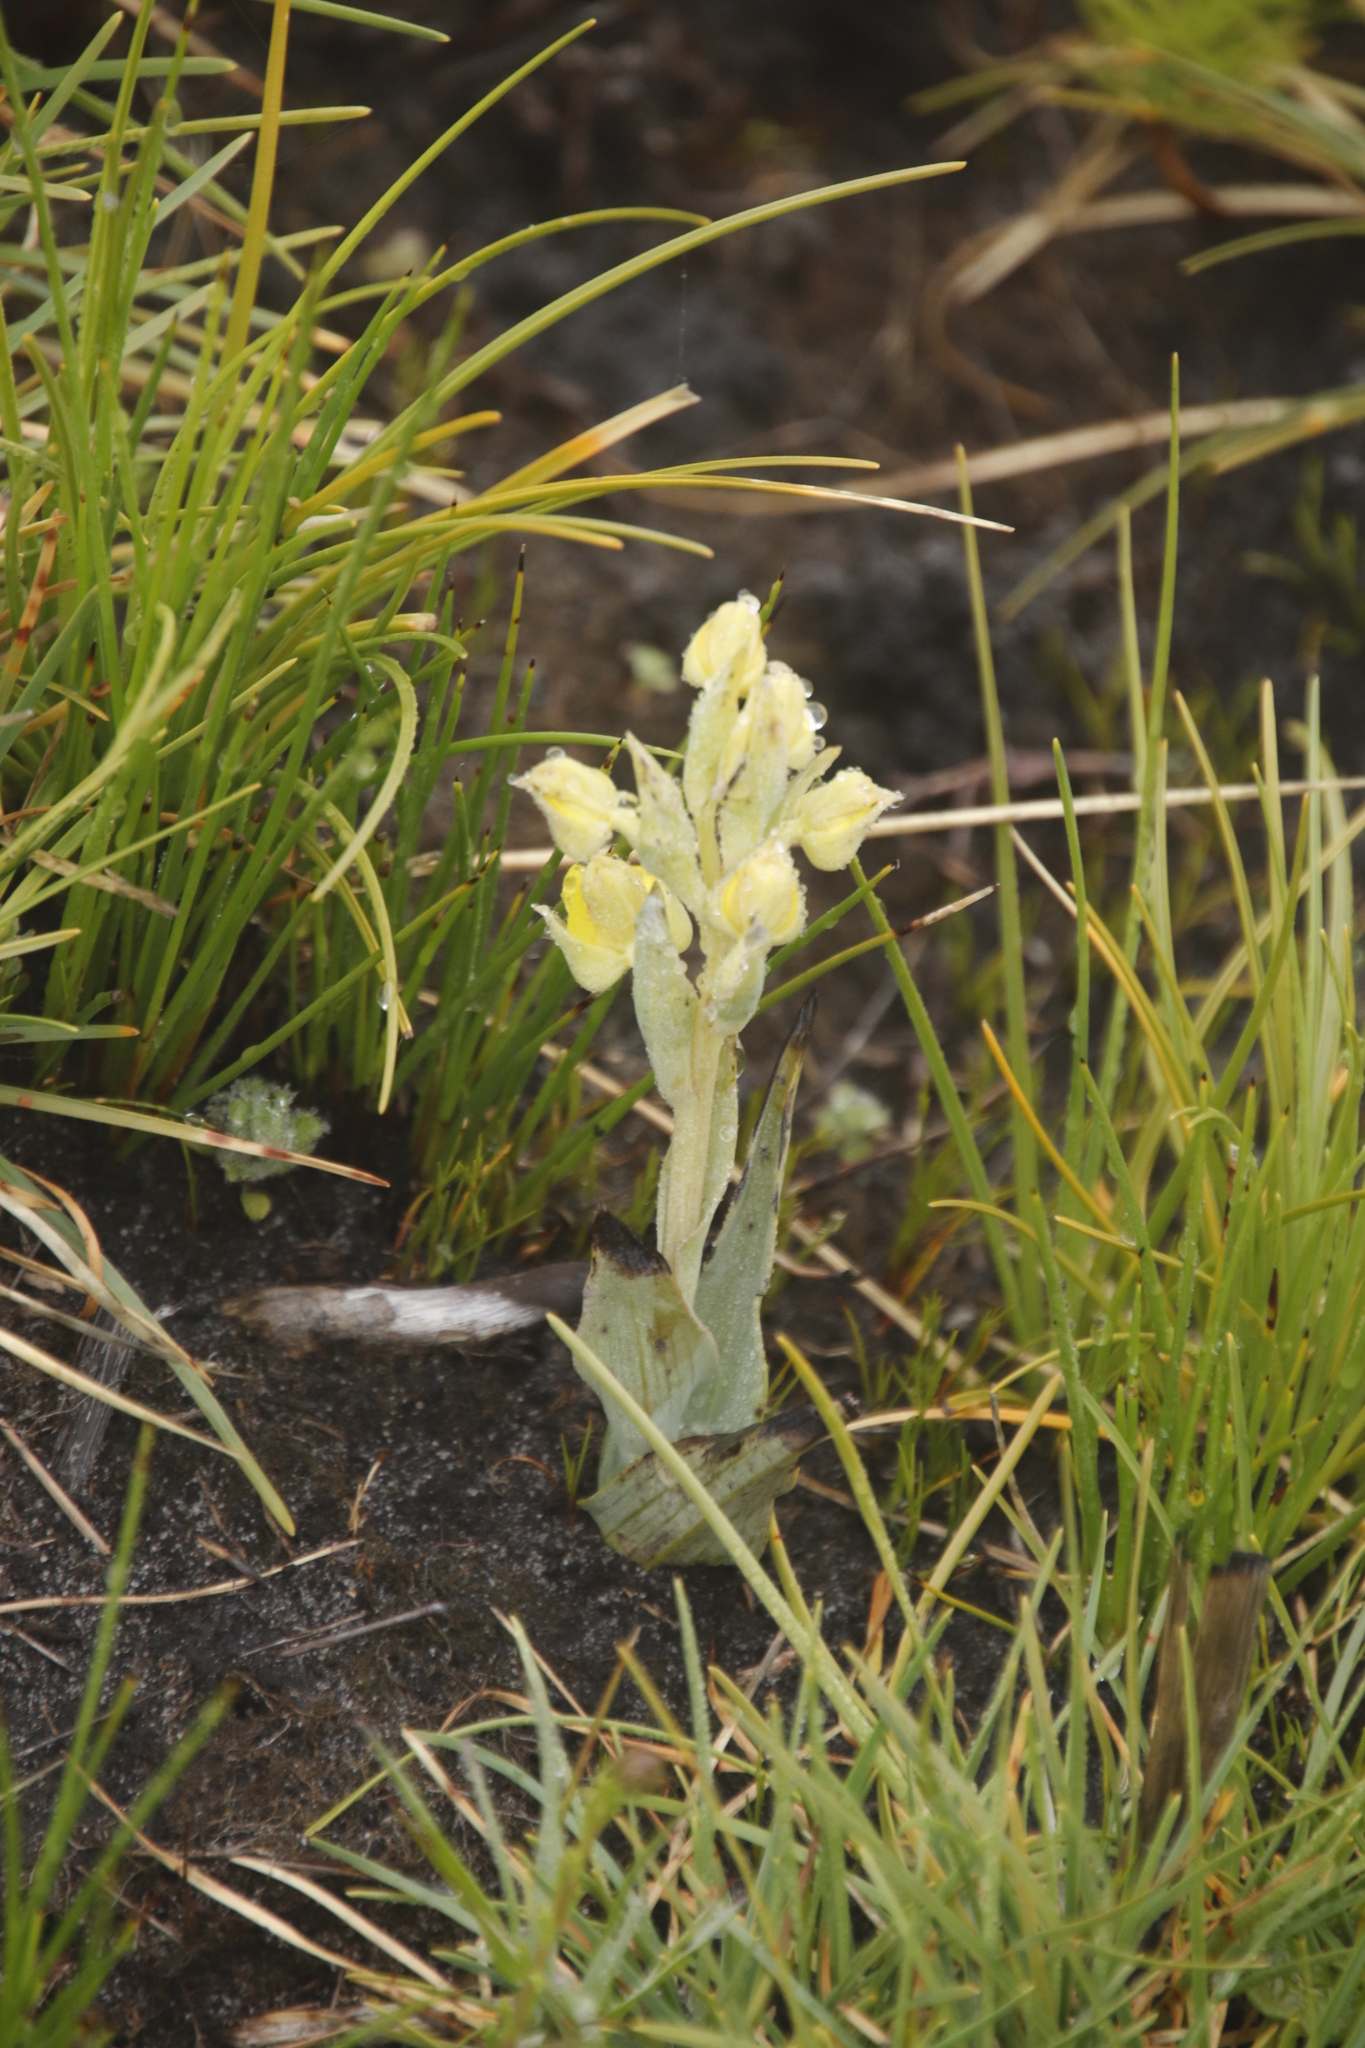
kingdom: Plantae
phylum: Tracheophyta
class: Liliopsida
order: Asparagales
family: Orchidaceae
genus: Pterygodium
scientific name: Pterygodium acutifolium
